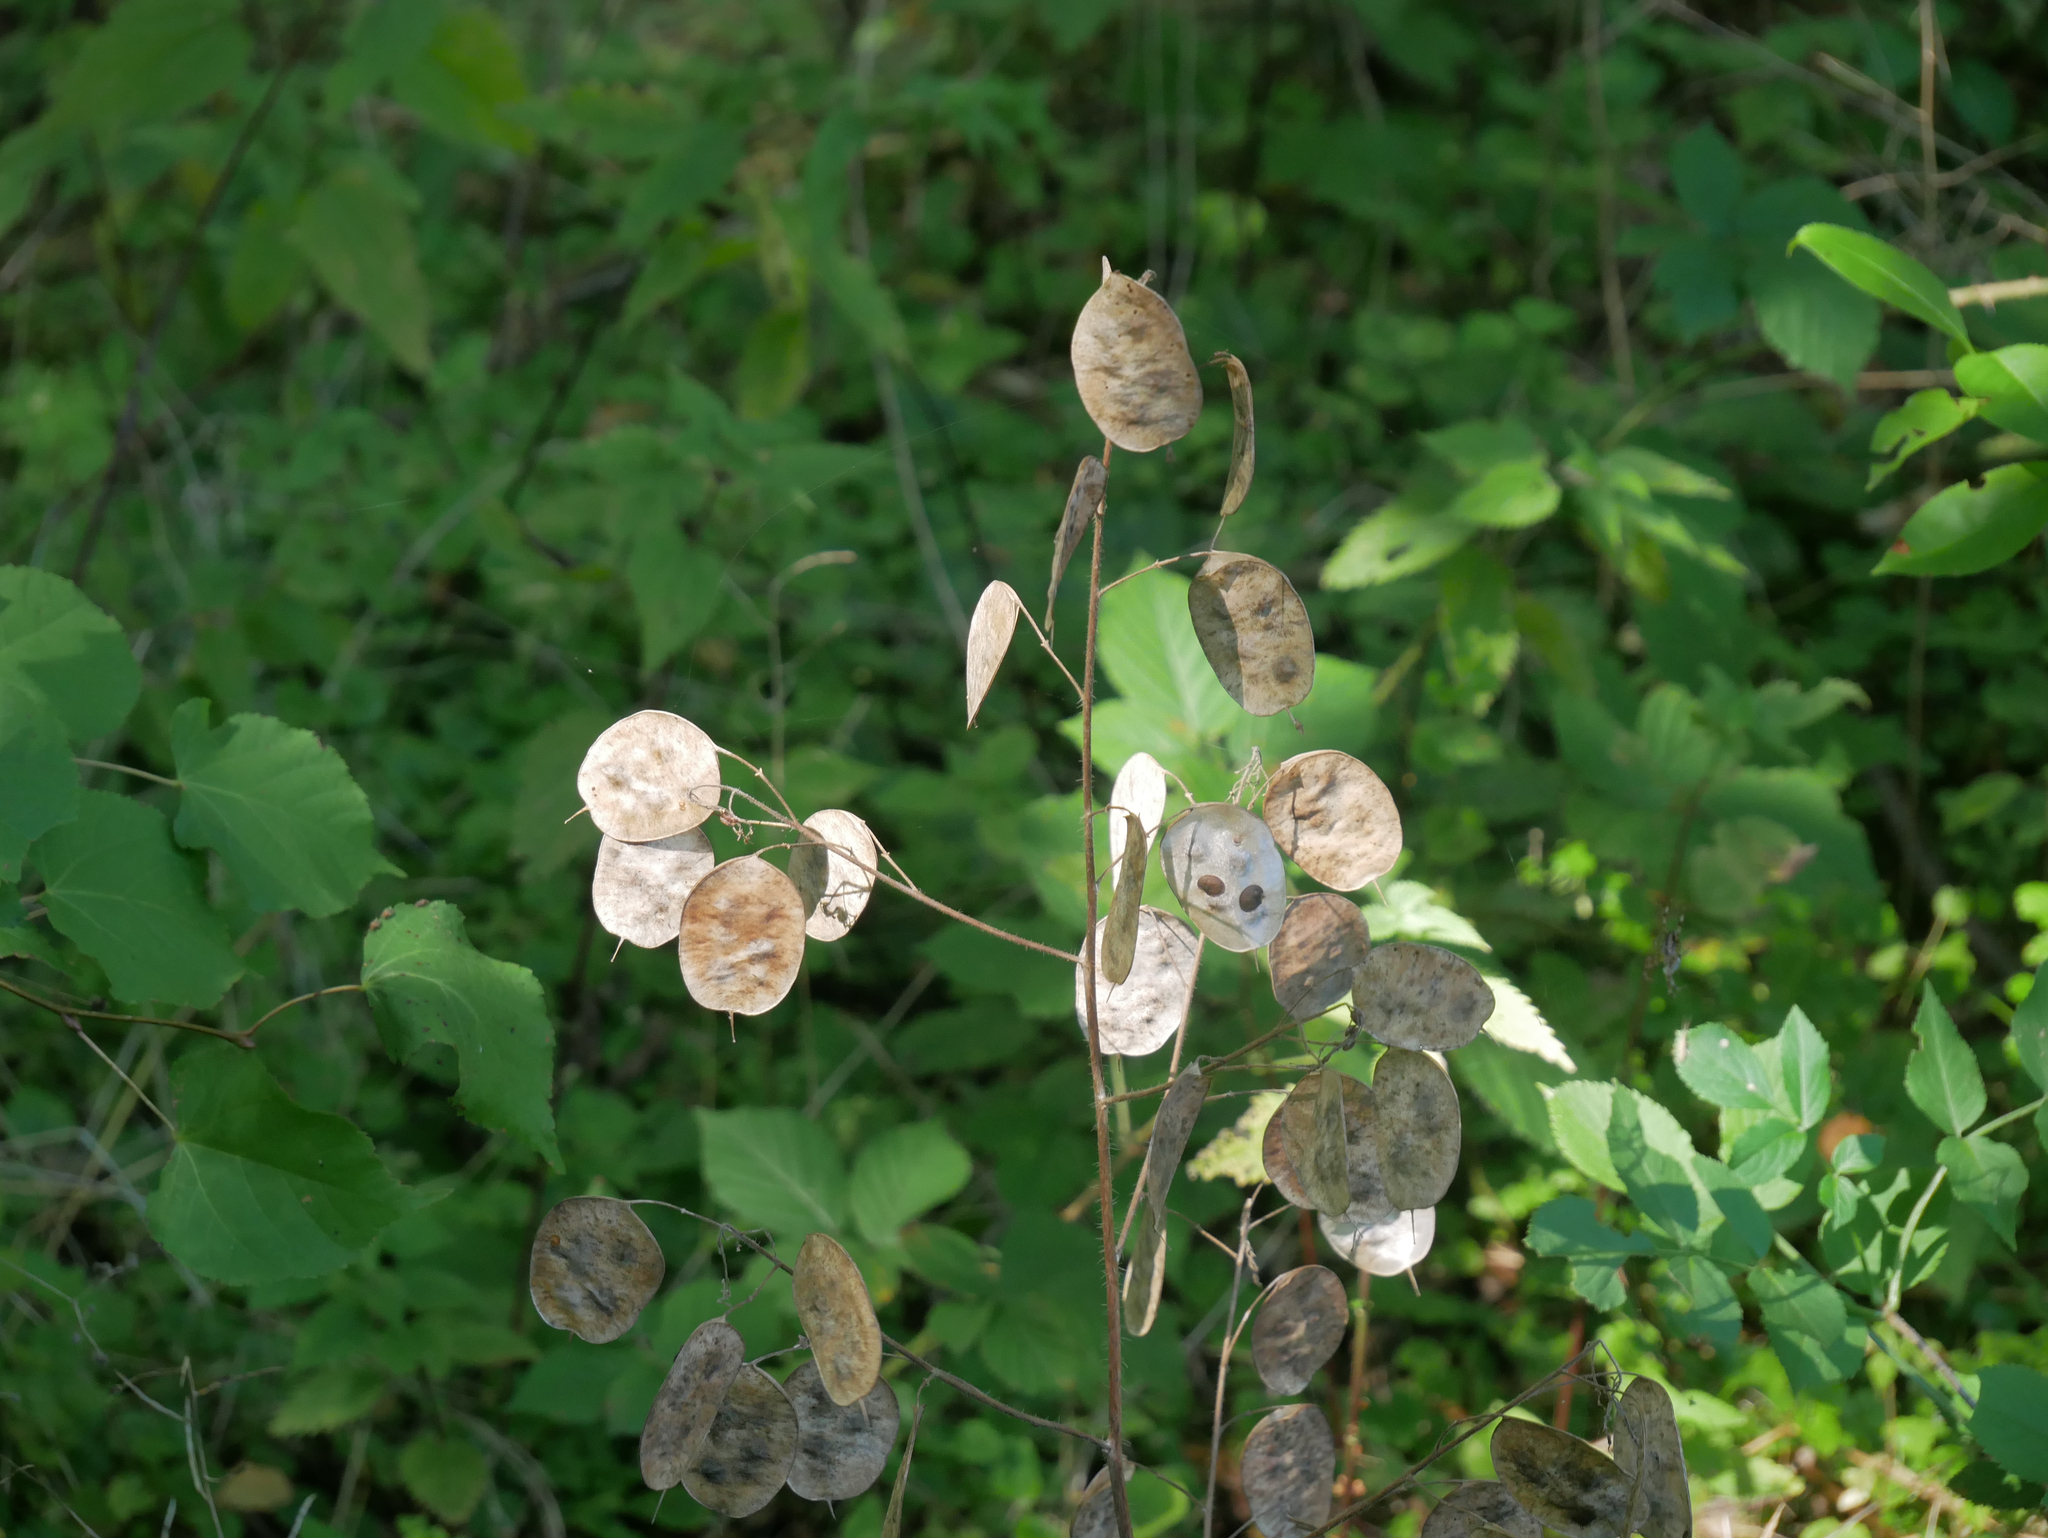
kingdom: Plantae
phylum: Tracheophyta
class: Magnoliopsida
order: Brassicales
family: Brassicaceae
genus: Lunaria
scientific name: Lunaria annua
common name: Honesty
